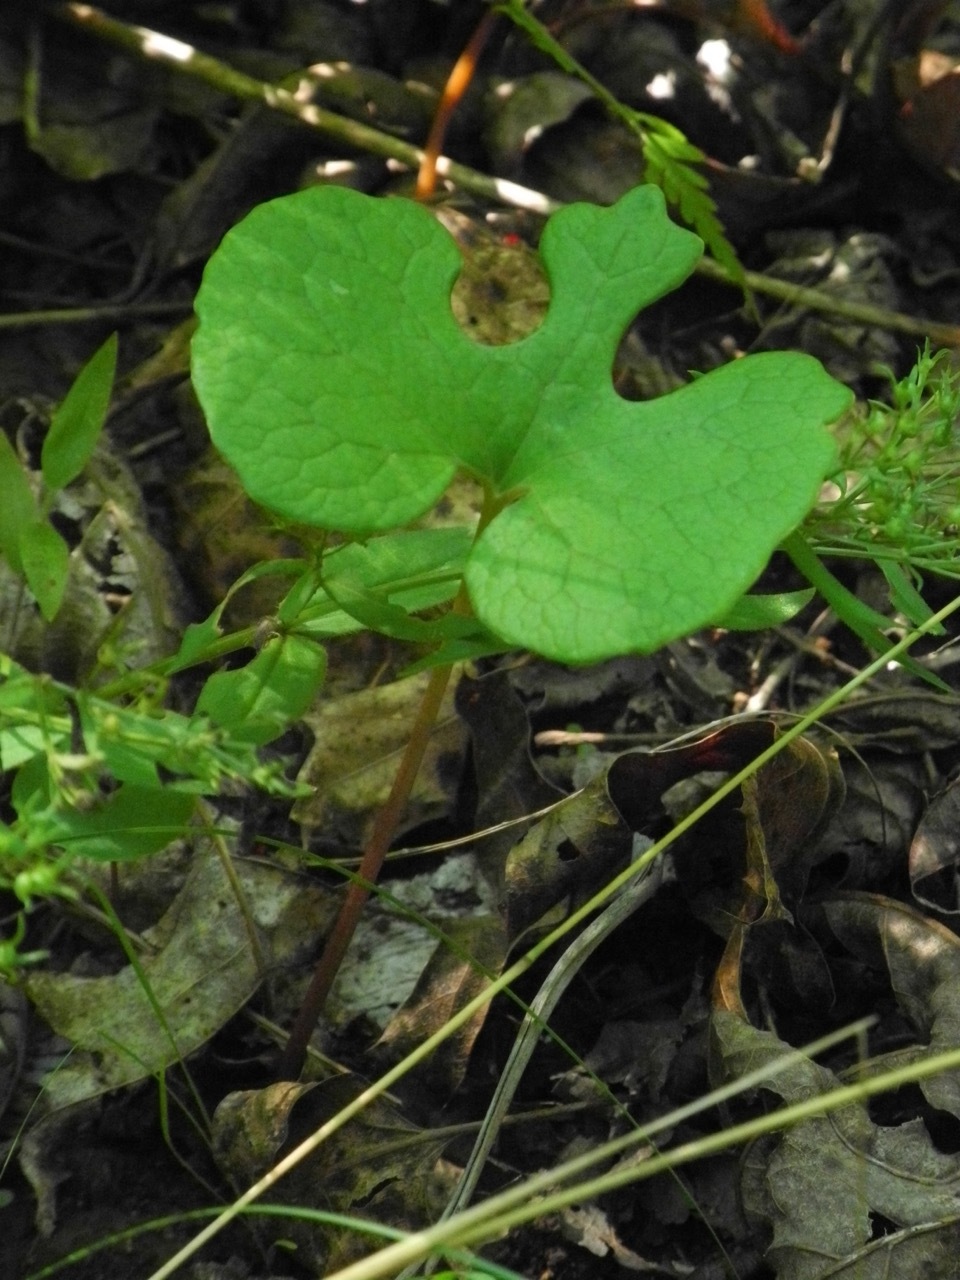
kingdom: Plantae
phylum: Tracheophyta
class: Magnoliopsida
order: Ranunculales
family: Papaveraceae
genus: Sanguinaria
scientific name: Sanguinaria canadensis
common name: Bloodroot
